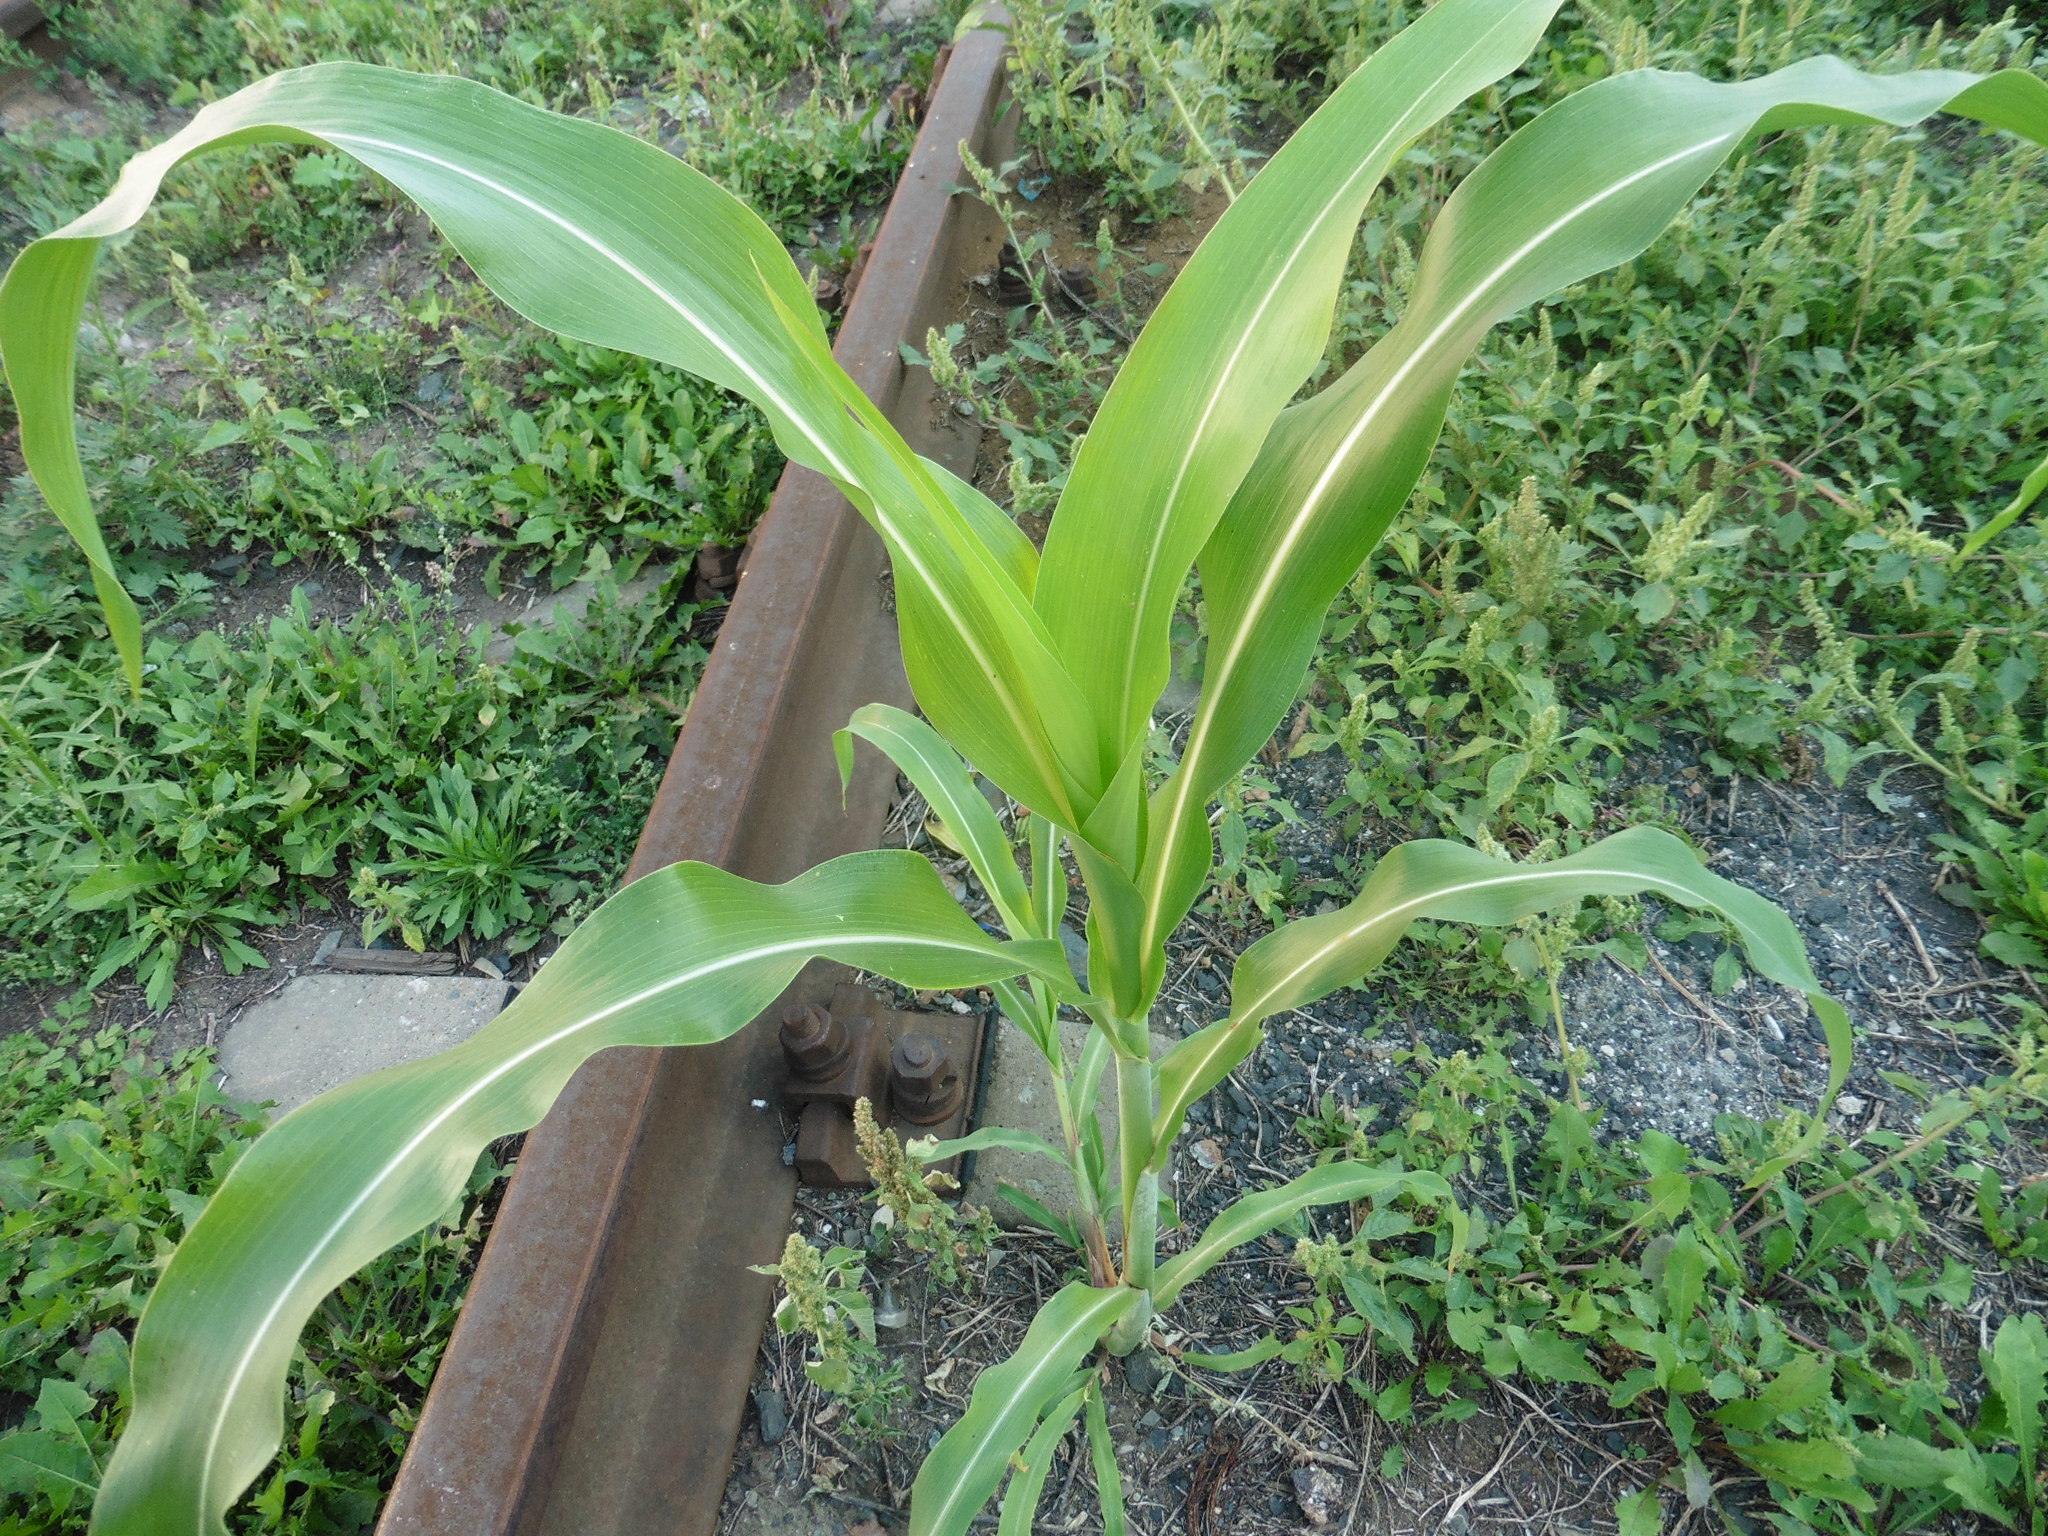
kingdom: Plantae
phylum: Tracheophyta
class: Liliopsida
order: Poales
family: Poaceae
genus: Zea
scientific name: Zea mays
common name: Maize
